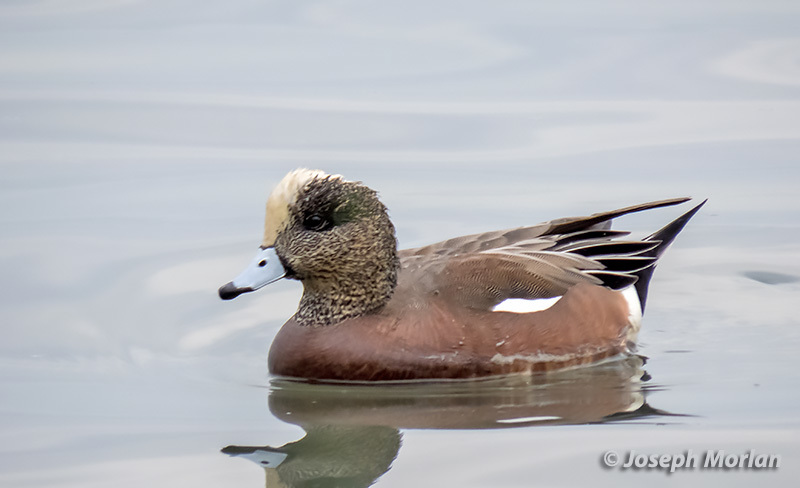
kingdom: Animalia
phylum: Chordata
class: Aves
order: Anseriformes
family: Anatidae
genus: Mareca
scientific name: Mareca americana
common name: American wigeon
